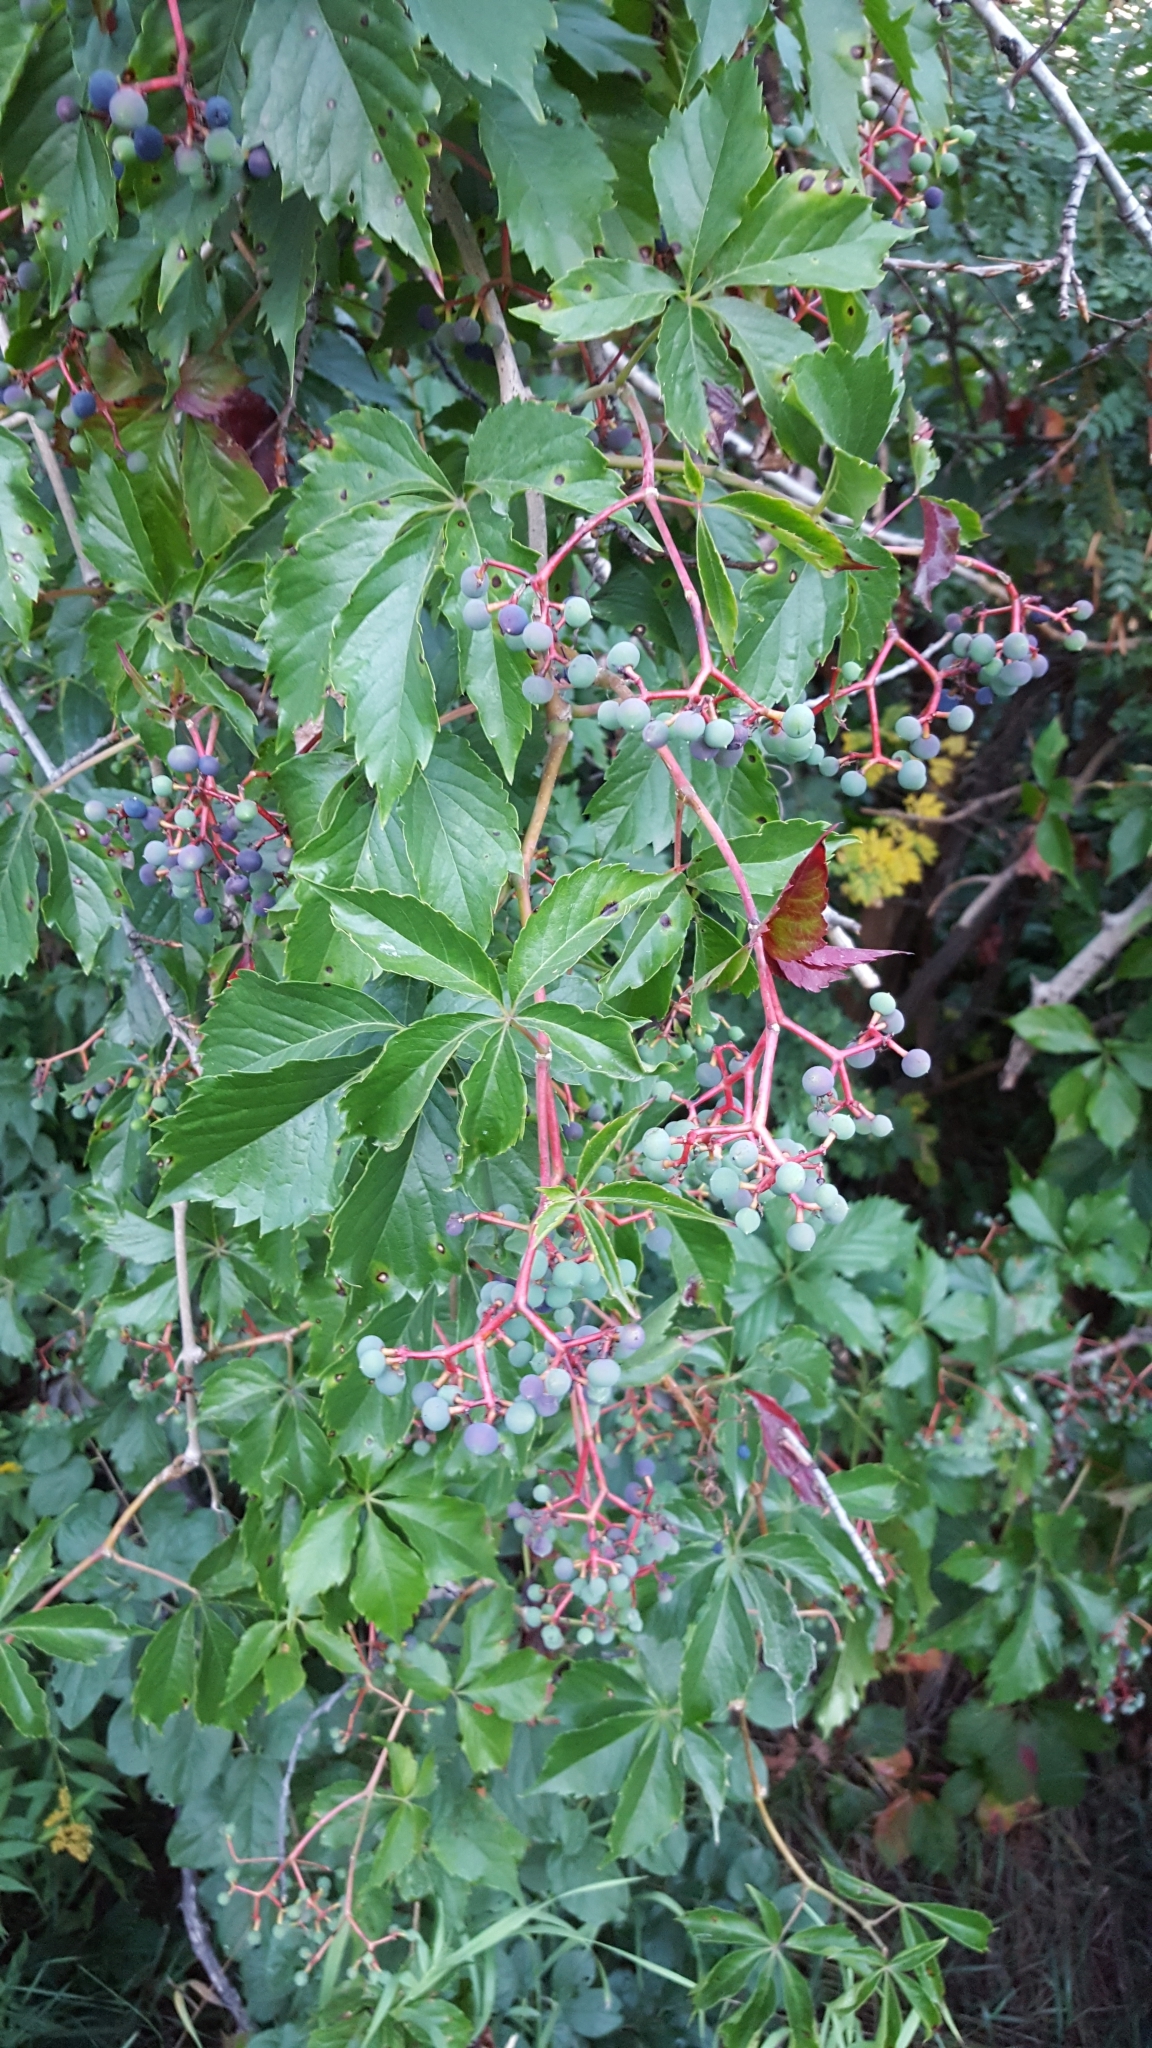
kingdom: Plantae
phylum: Tracheophyta
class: Magnoliopsida
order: Vitales
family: Vitaceae
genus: Parthenocissus
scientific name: Parthenocissus inserta
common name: False virginia-creeper
